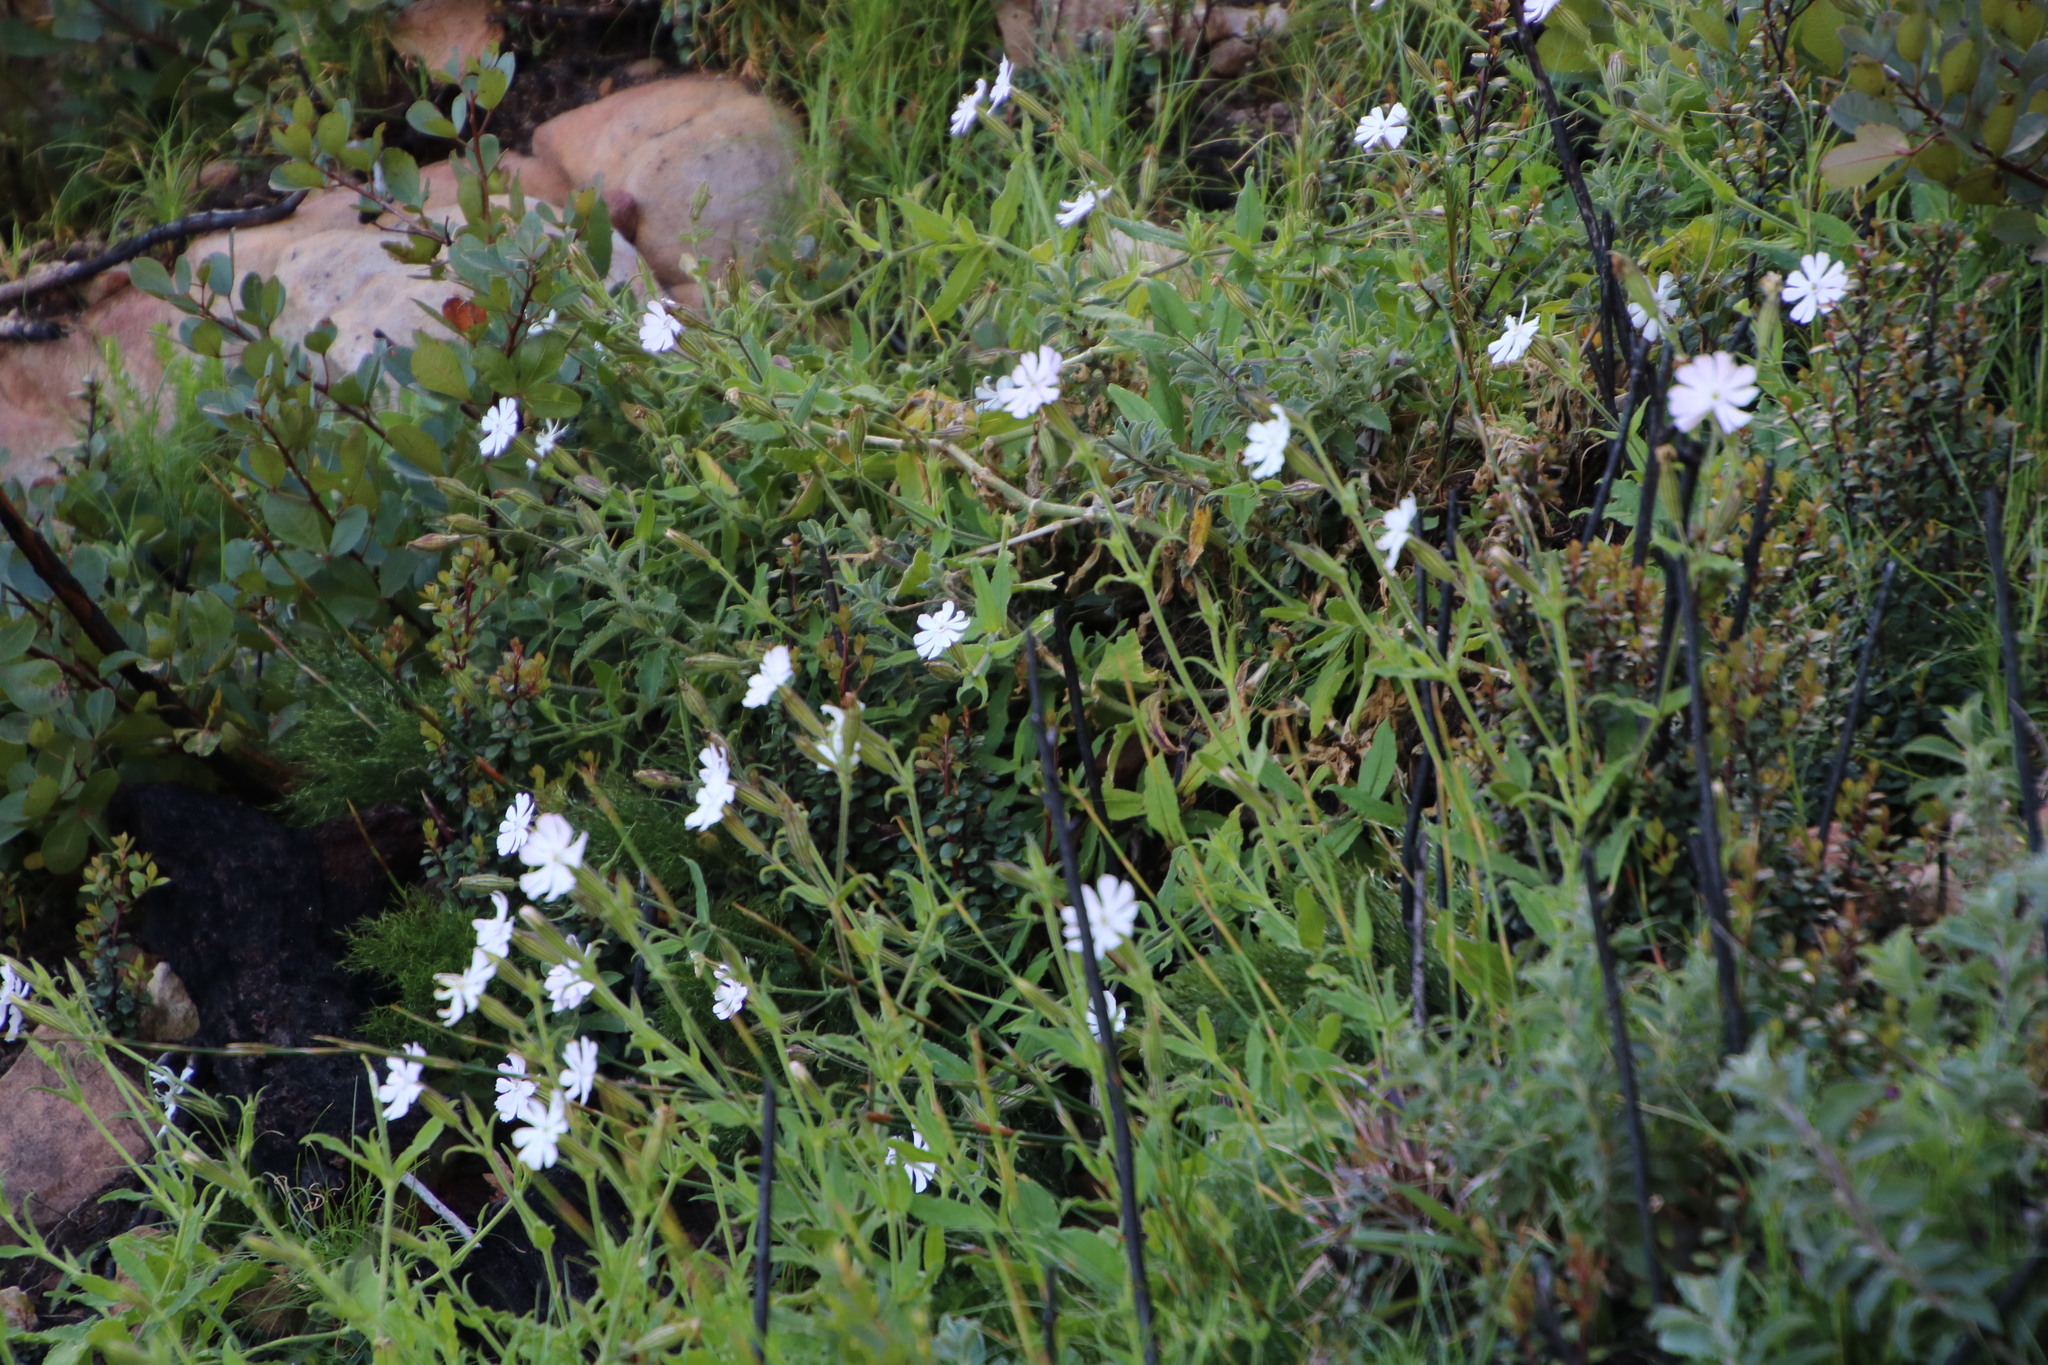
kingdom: Plantae
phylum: Tracheophyta
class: Magnoliopsida
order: Caryophyllales
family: Caryophyllaceae
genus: Silene
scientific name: Silene undulata
